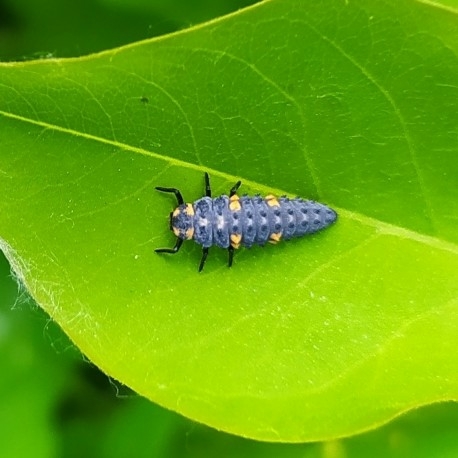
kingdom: Animalia
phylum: Arthropoda
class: Insecta
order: Coleoptera
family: Coccinellidae
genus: Coccinella
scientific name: Coccinella septempunctata
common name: Sevenspotted lady beetle
